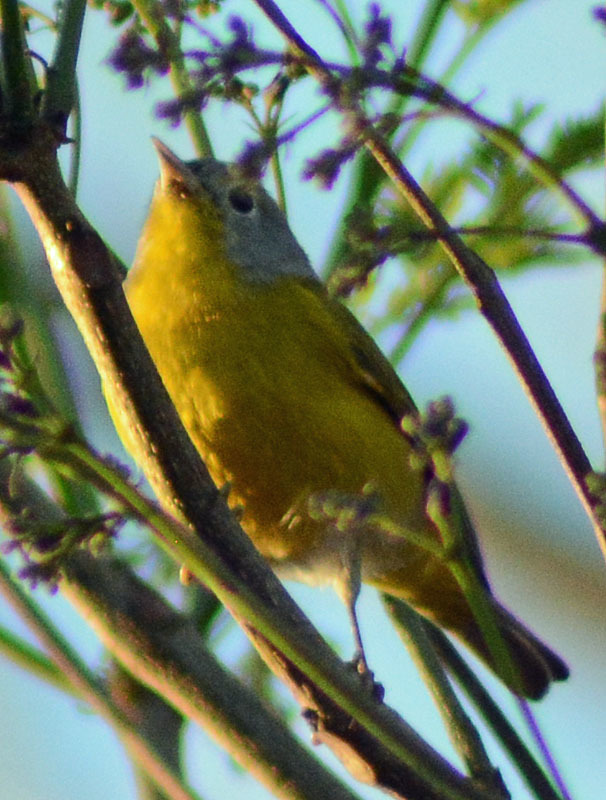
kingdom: Animalia
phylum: Chordata
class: Aves
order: Passeriformes
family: Parulidae
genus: Leiothlypis
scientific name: Leiothlypis ruficapilla
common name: Nashville warbler
